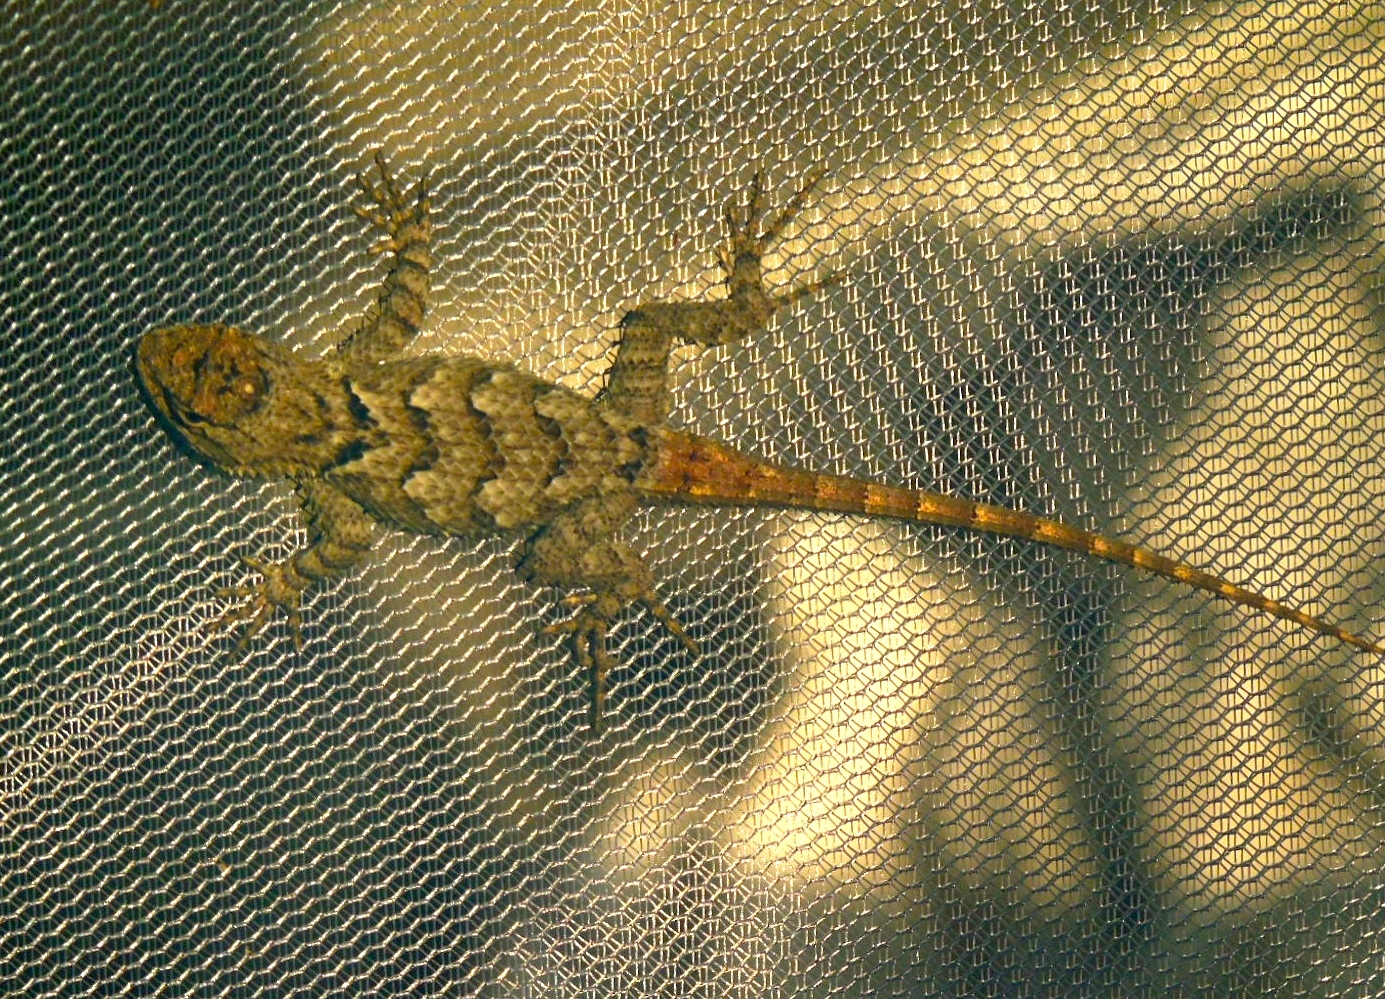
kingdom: Animalia
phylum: Chordata
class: Squamata
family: Phrynosomatidae
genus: Sceloporus
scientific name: Sceloporus clarkii
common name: Clark's spiny lizard
